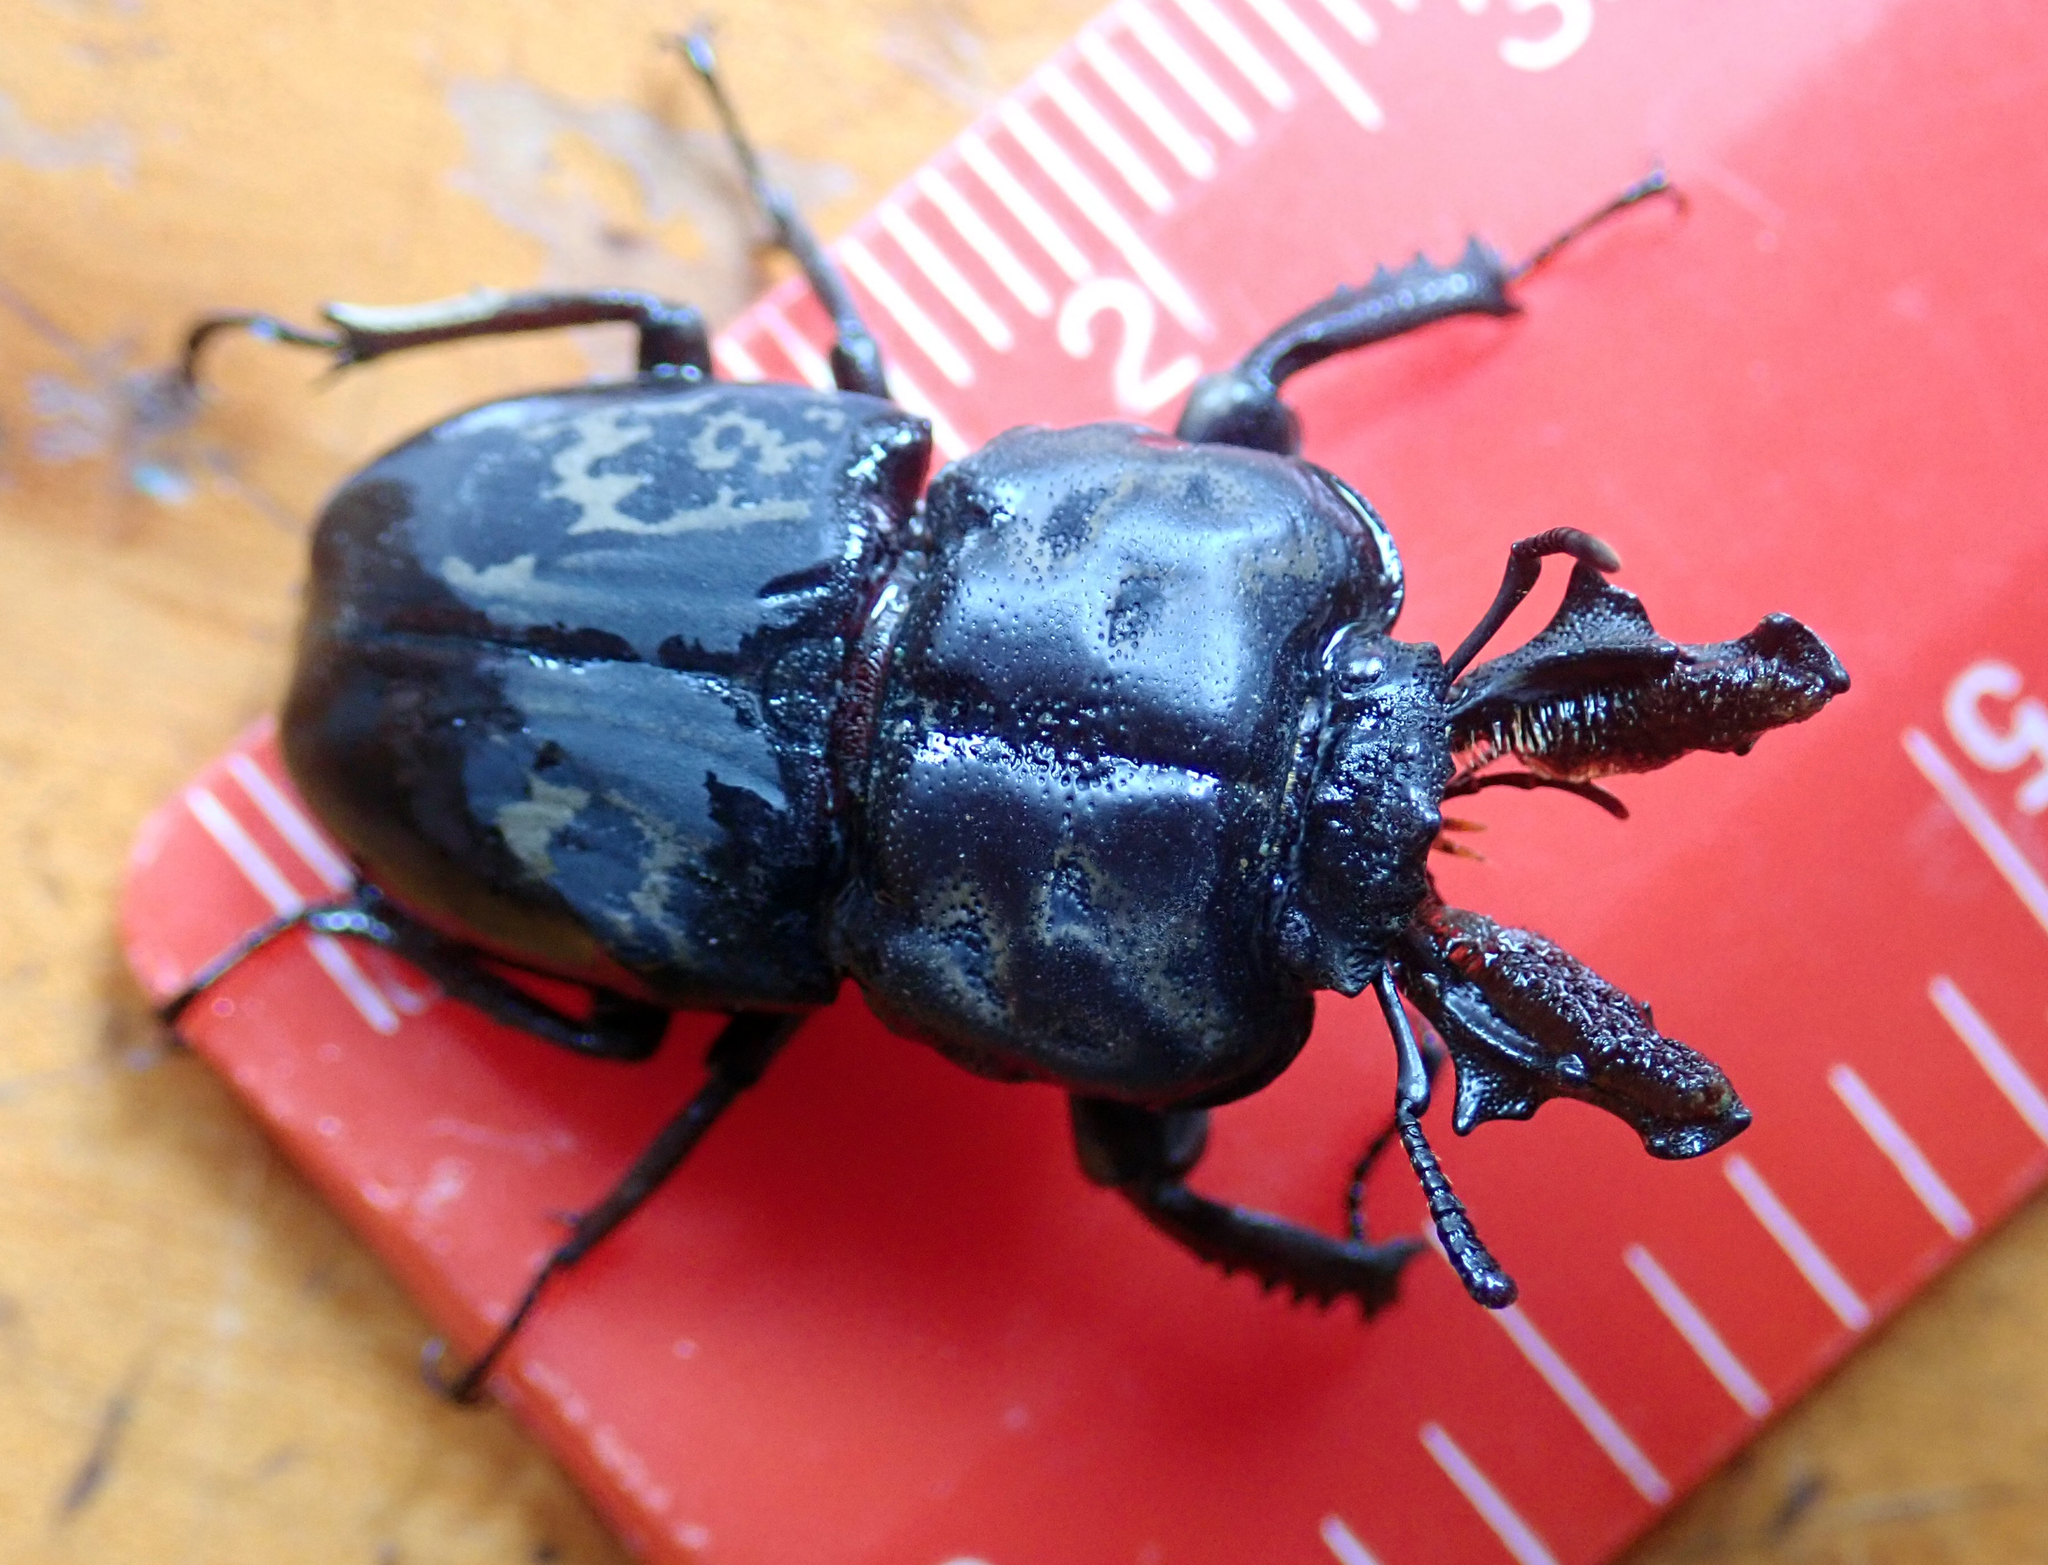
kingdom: Animalia
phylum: Arthropoda
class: Insecta
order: Coleoptera
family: Lucanidae
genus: Ryssonotus
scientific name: Ryssonotus nebulosus
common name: Brown stag beetle
